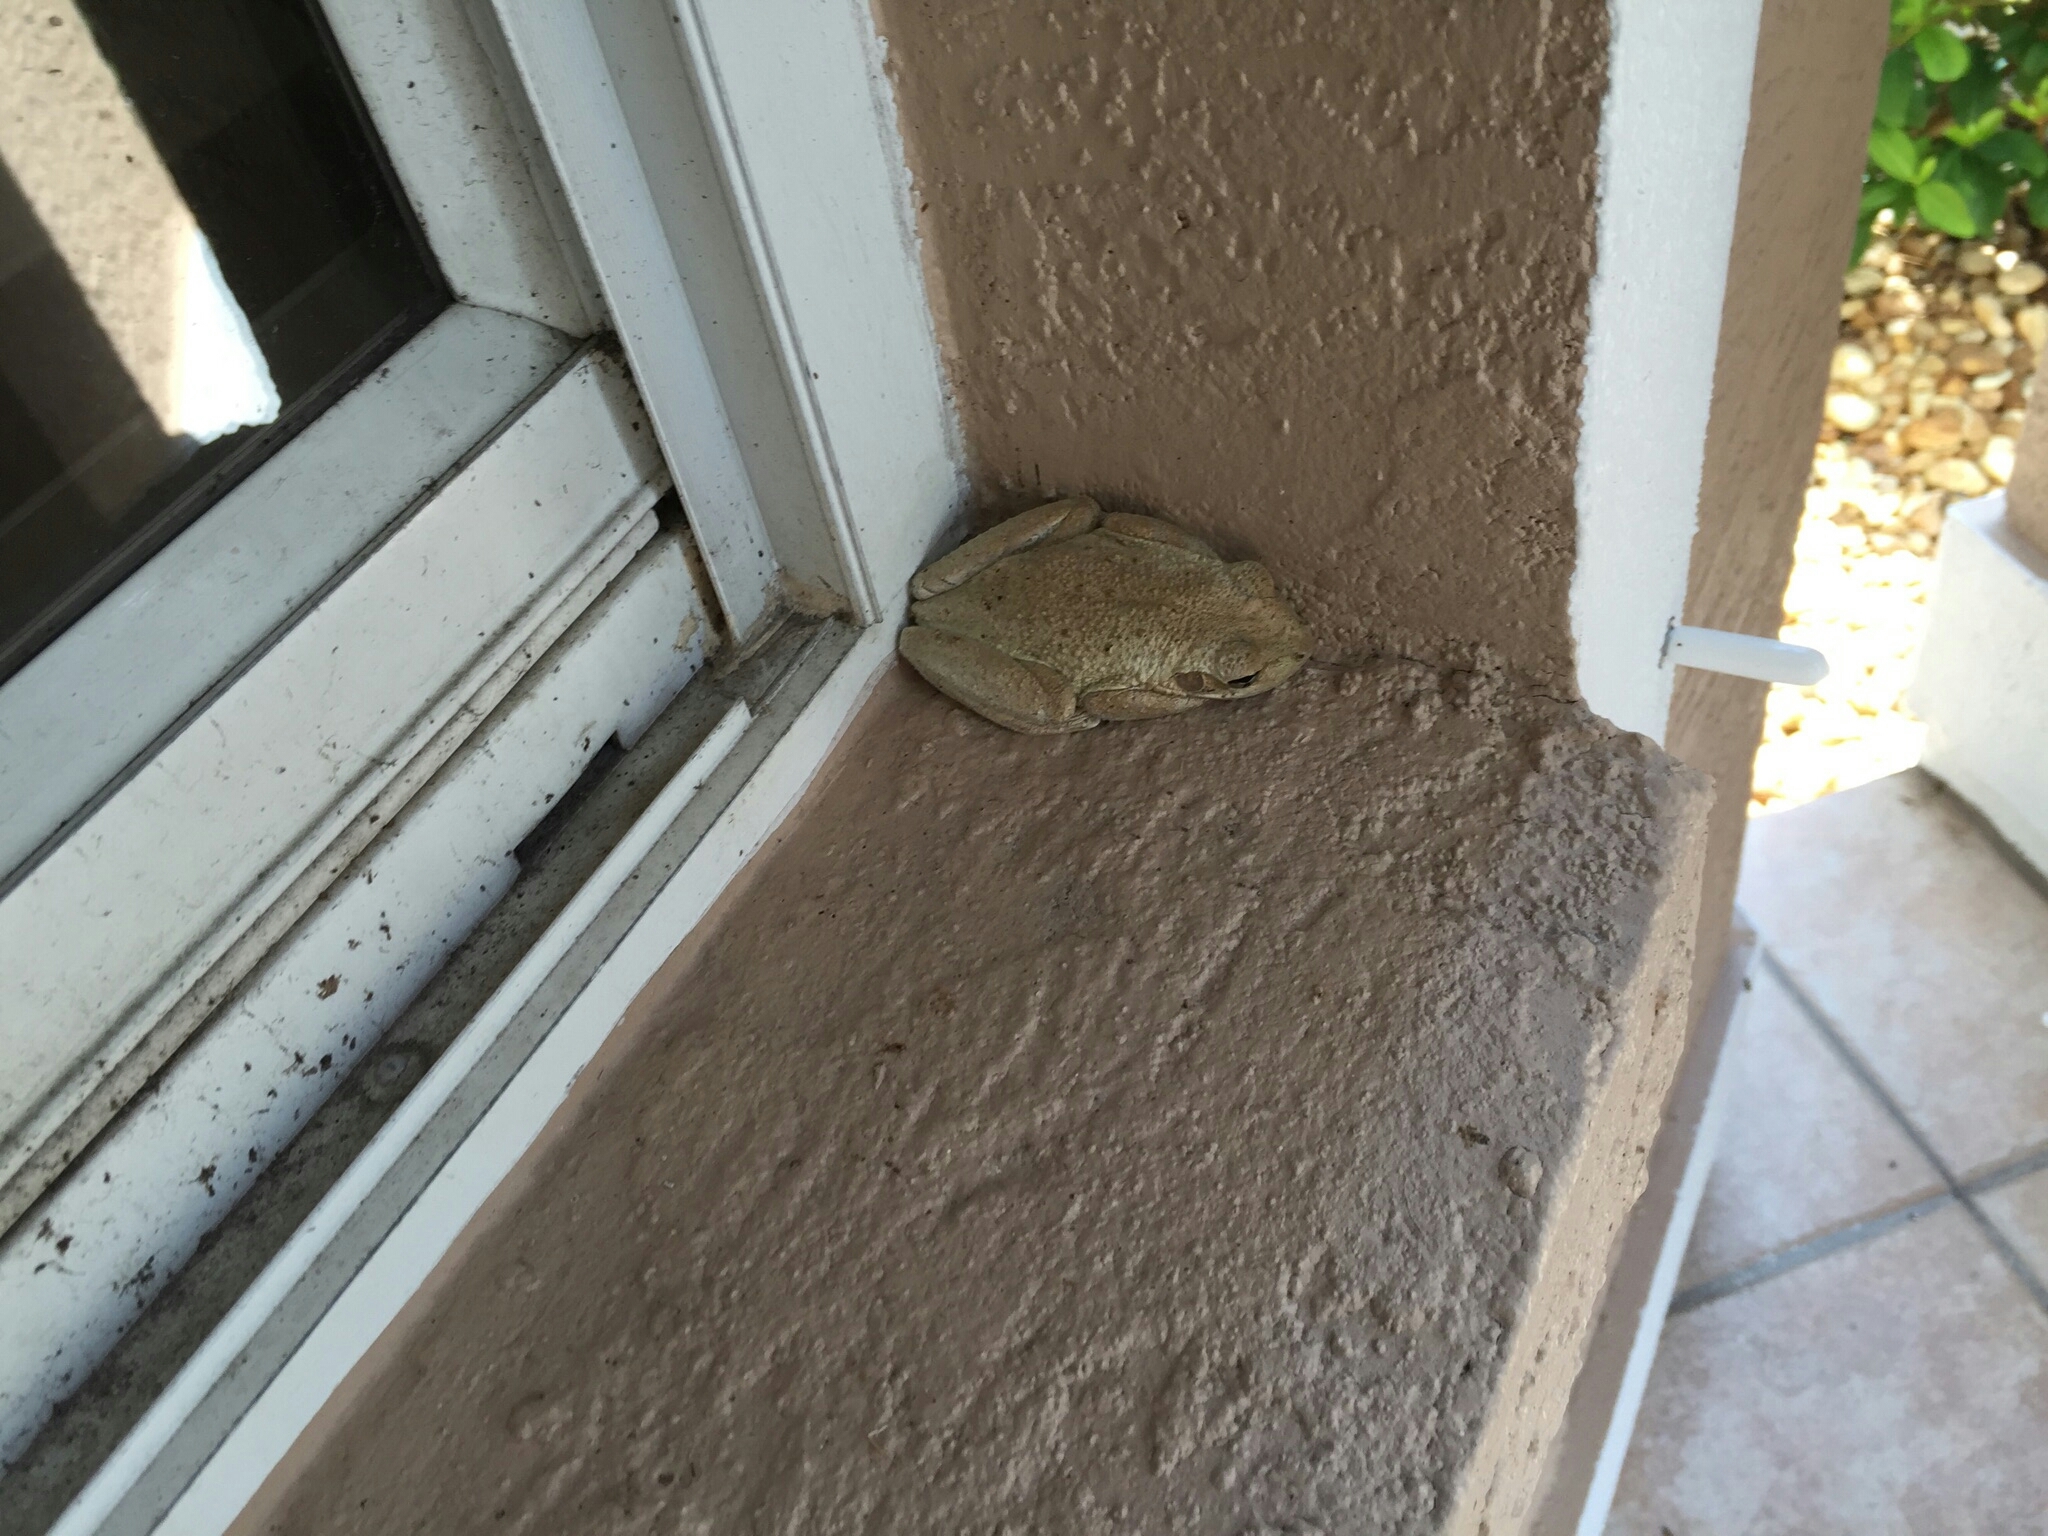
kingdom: Animalia
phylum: Chordata
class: Amphibia
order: Anura
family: Hylidae
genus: Osteopilus
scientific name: Osteopilus septentrionalis
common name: Cuban treefrog
